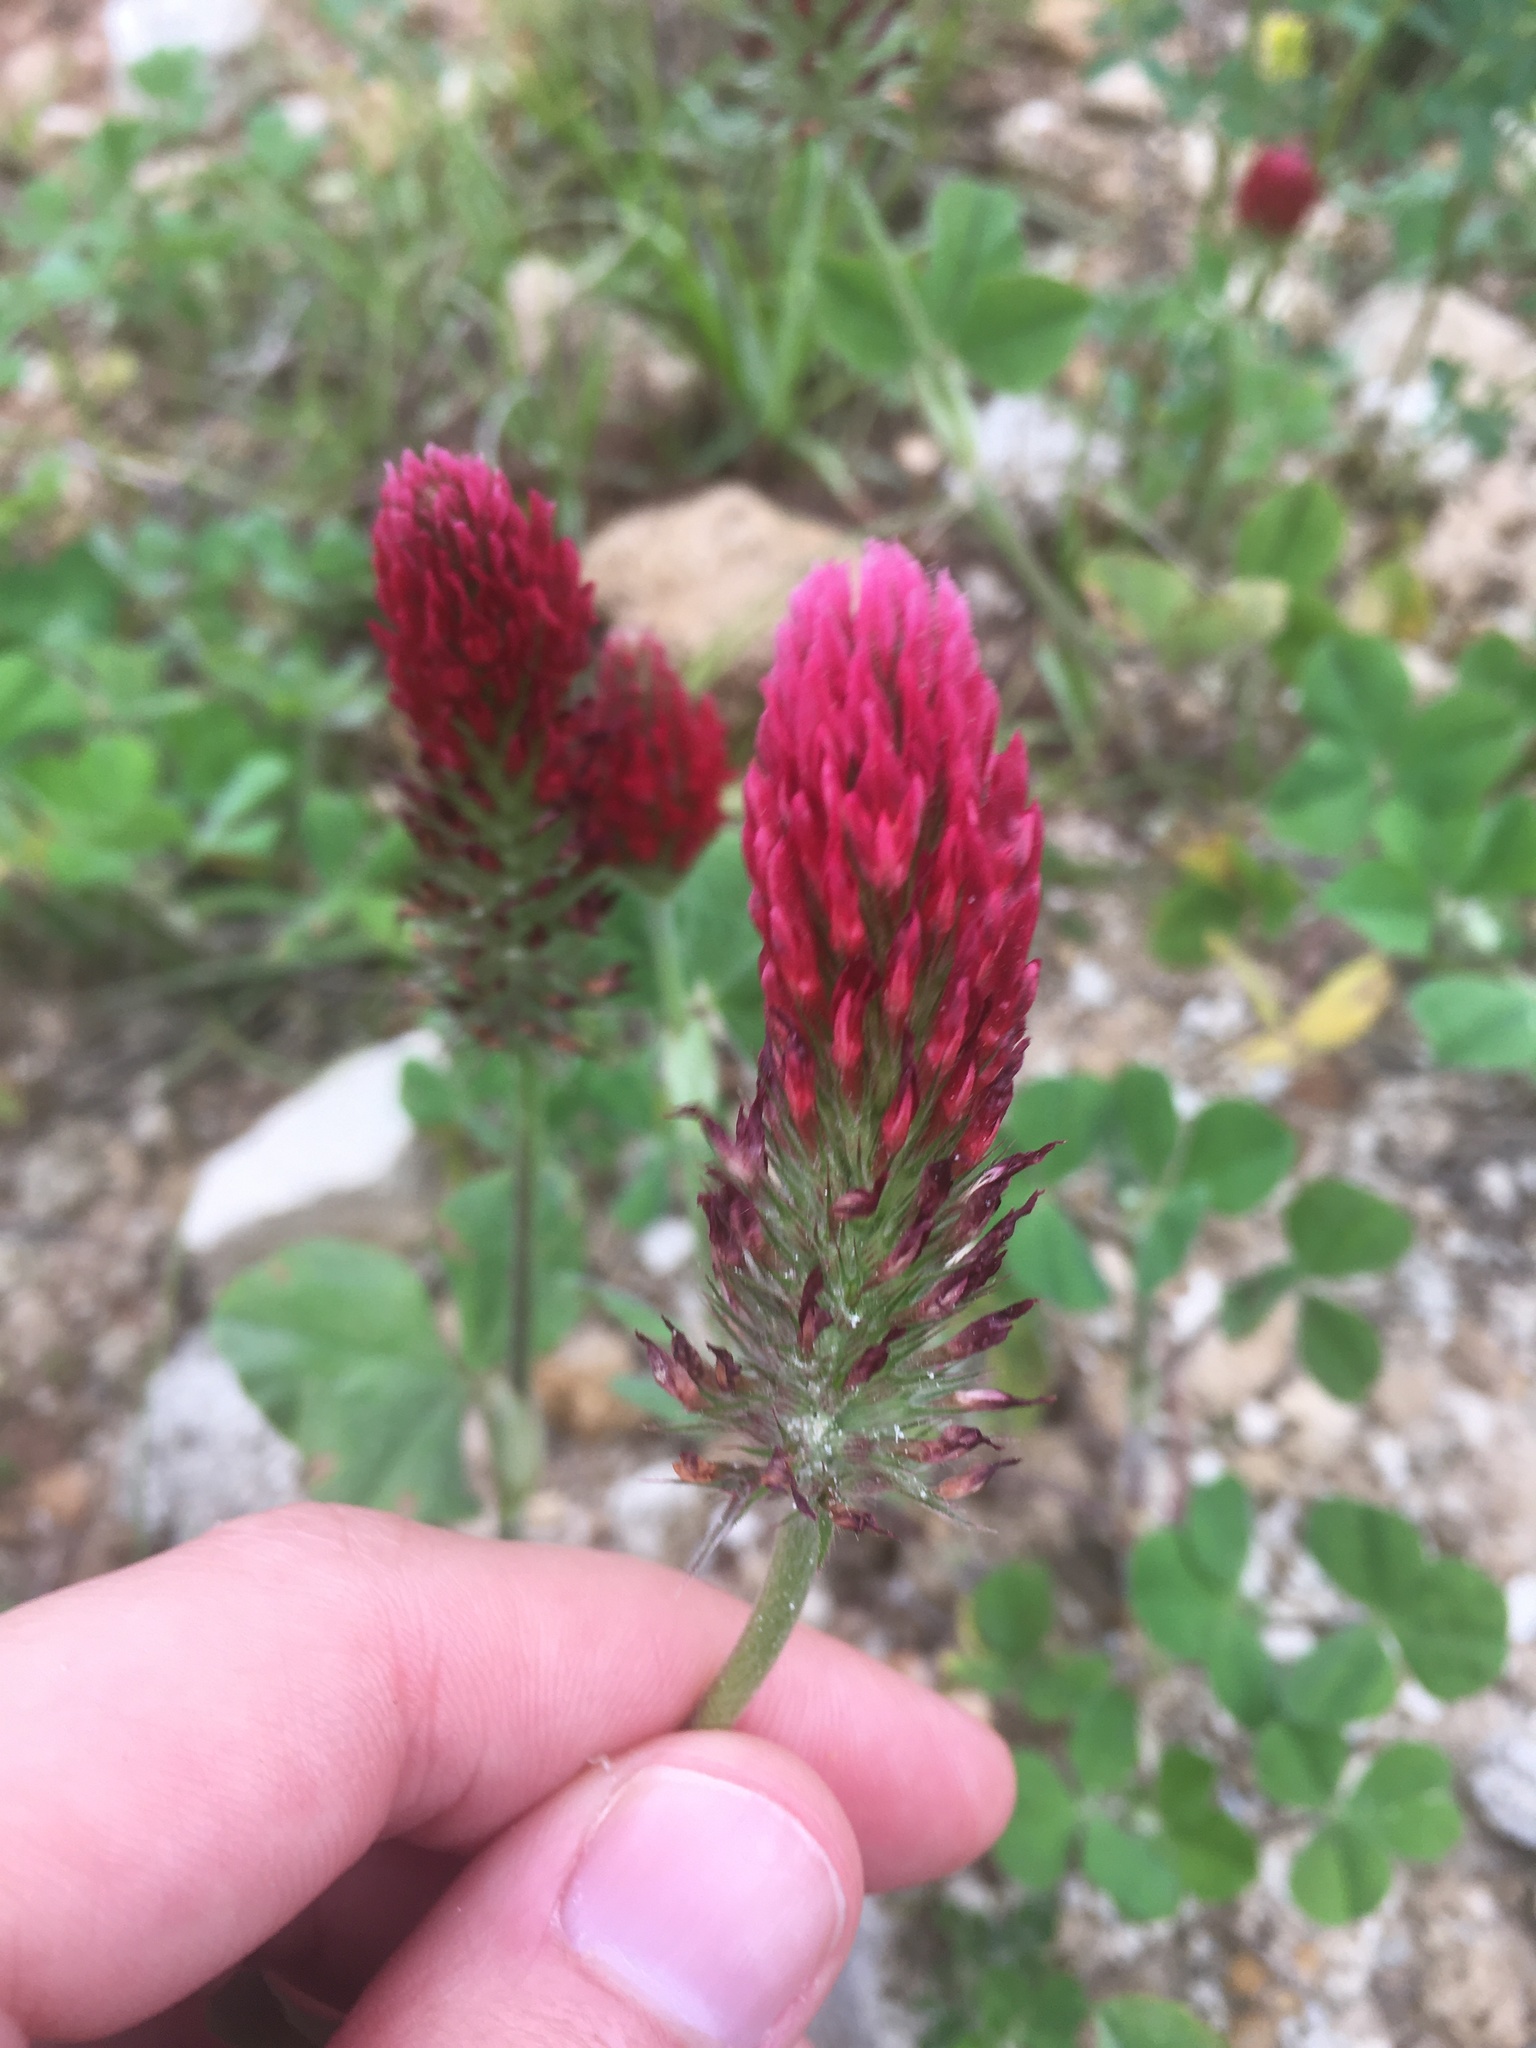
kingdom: Plantae
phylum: Tracheophyta
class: Magnoliopsida
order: Fabales
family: Fabaceae
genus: Trifolium
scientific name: Trifolium incarnatum
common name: Crimson clover
